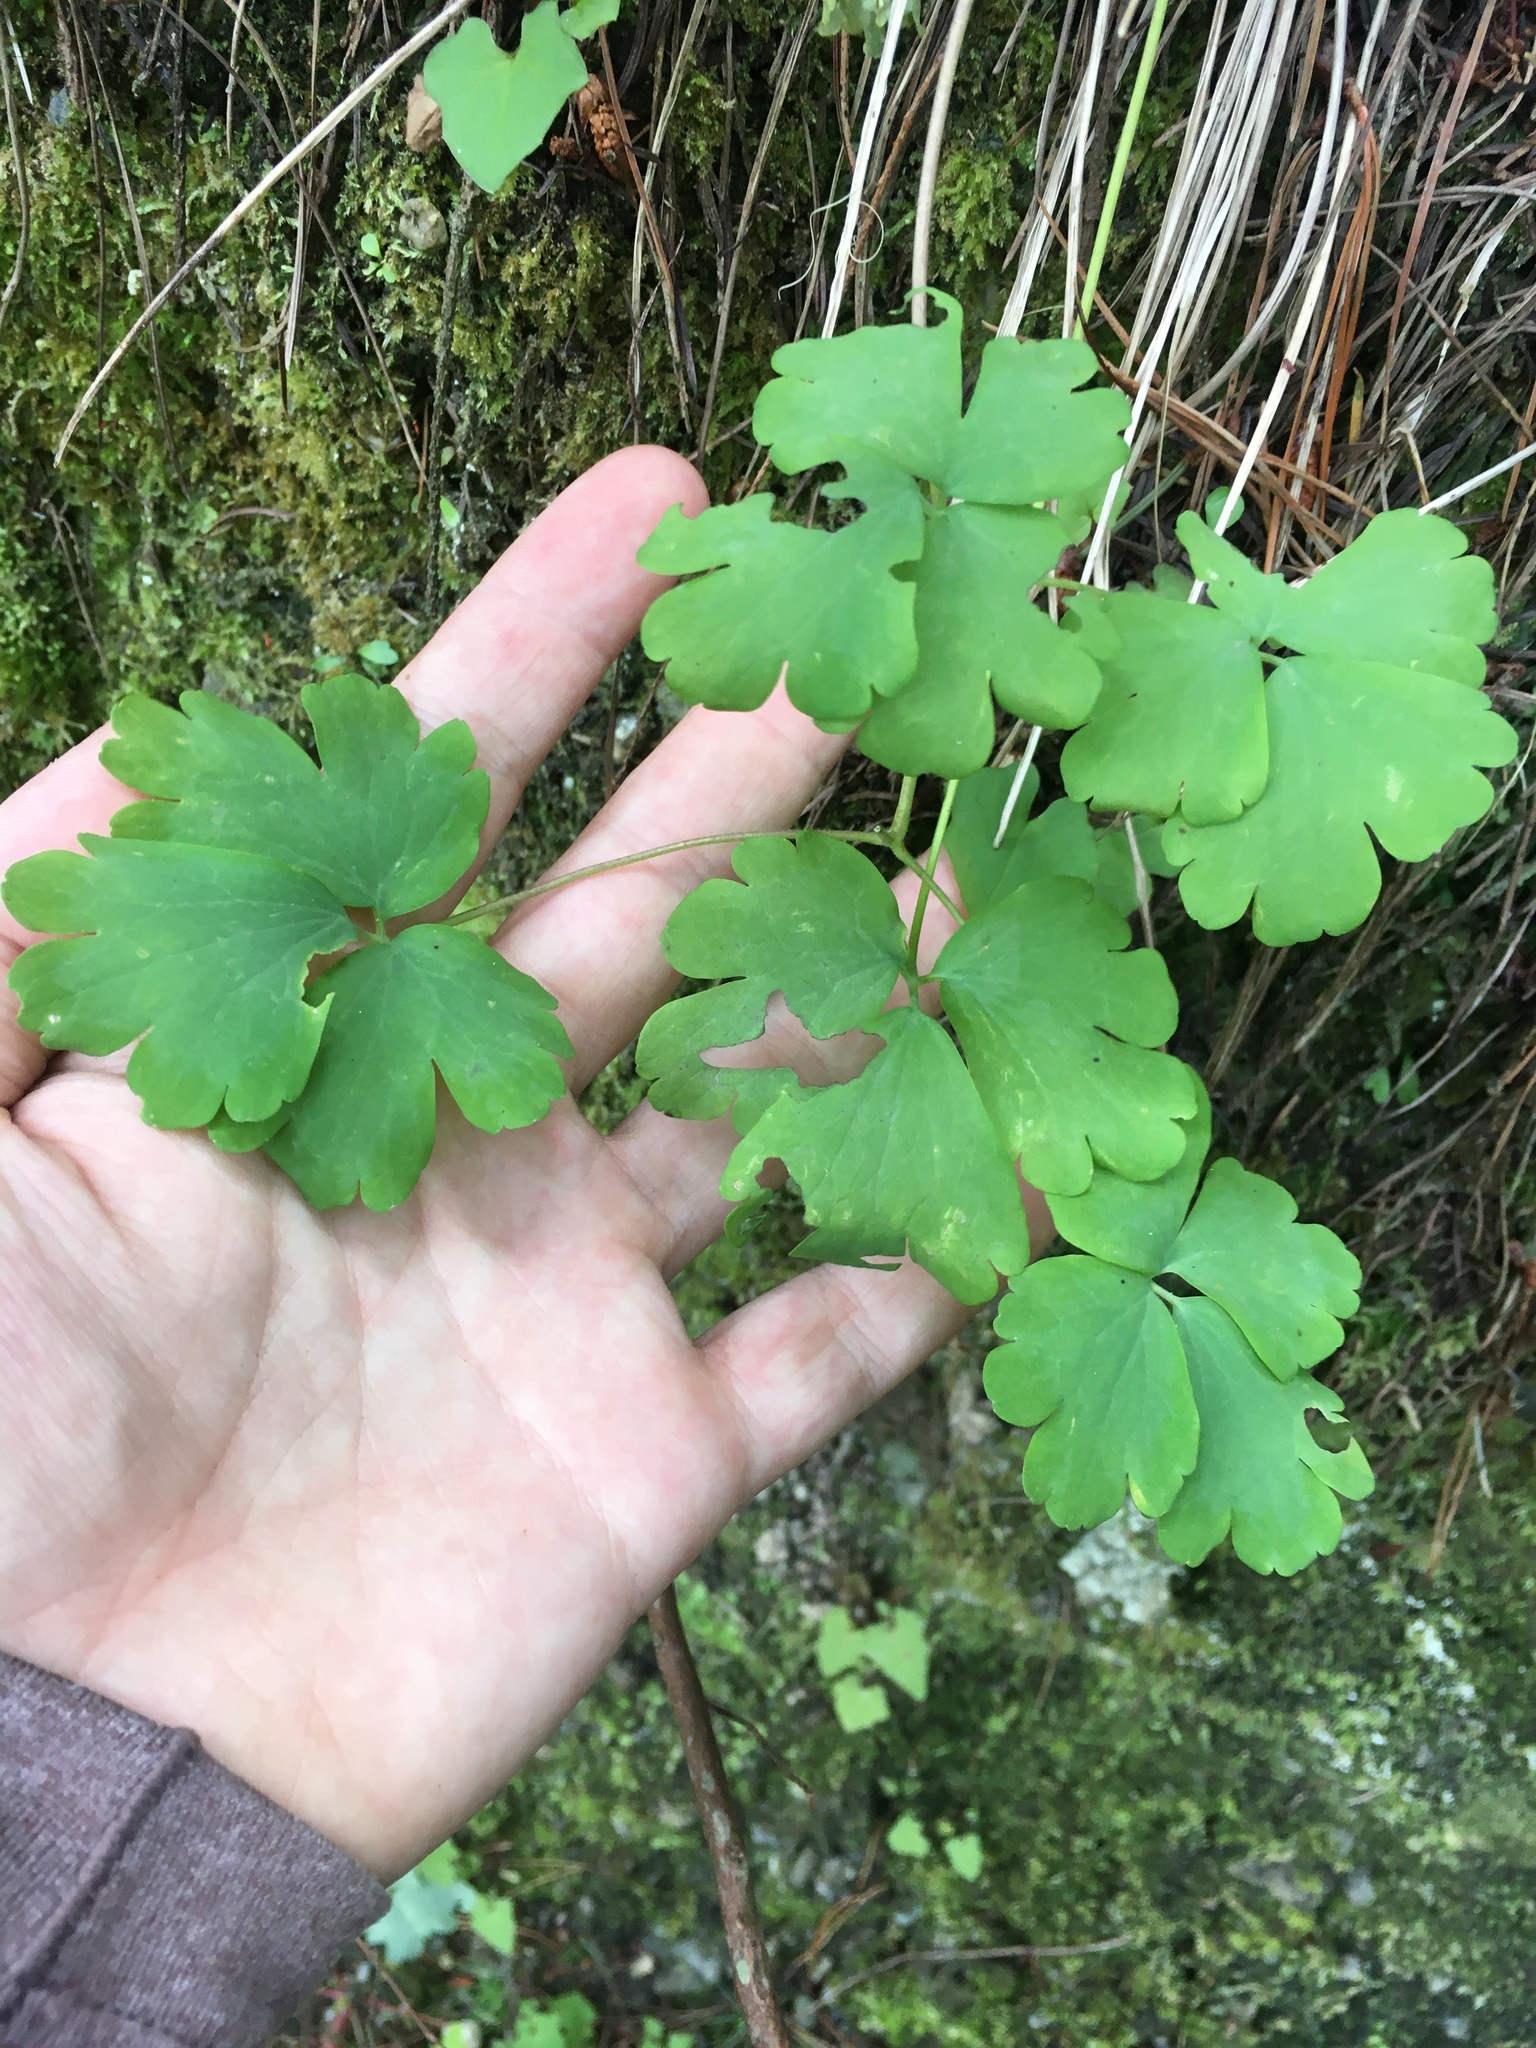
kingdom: Plantae
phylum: Tracheophyta
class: Magnoliopsida
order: Ranunculales
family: Ranunculaceae
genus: Aquilegia
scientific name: Aquilegia vulgaris
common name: Columbine
